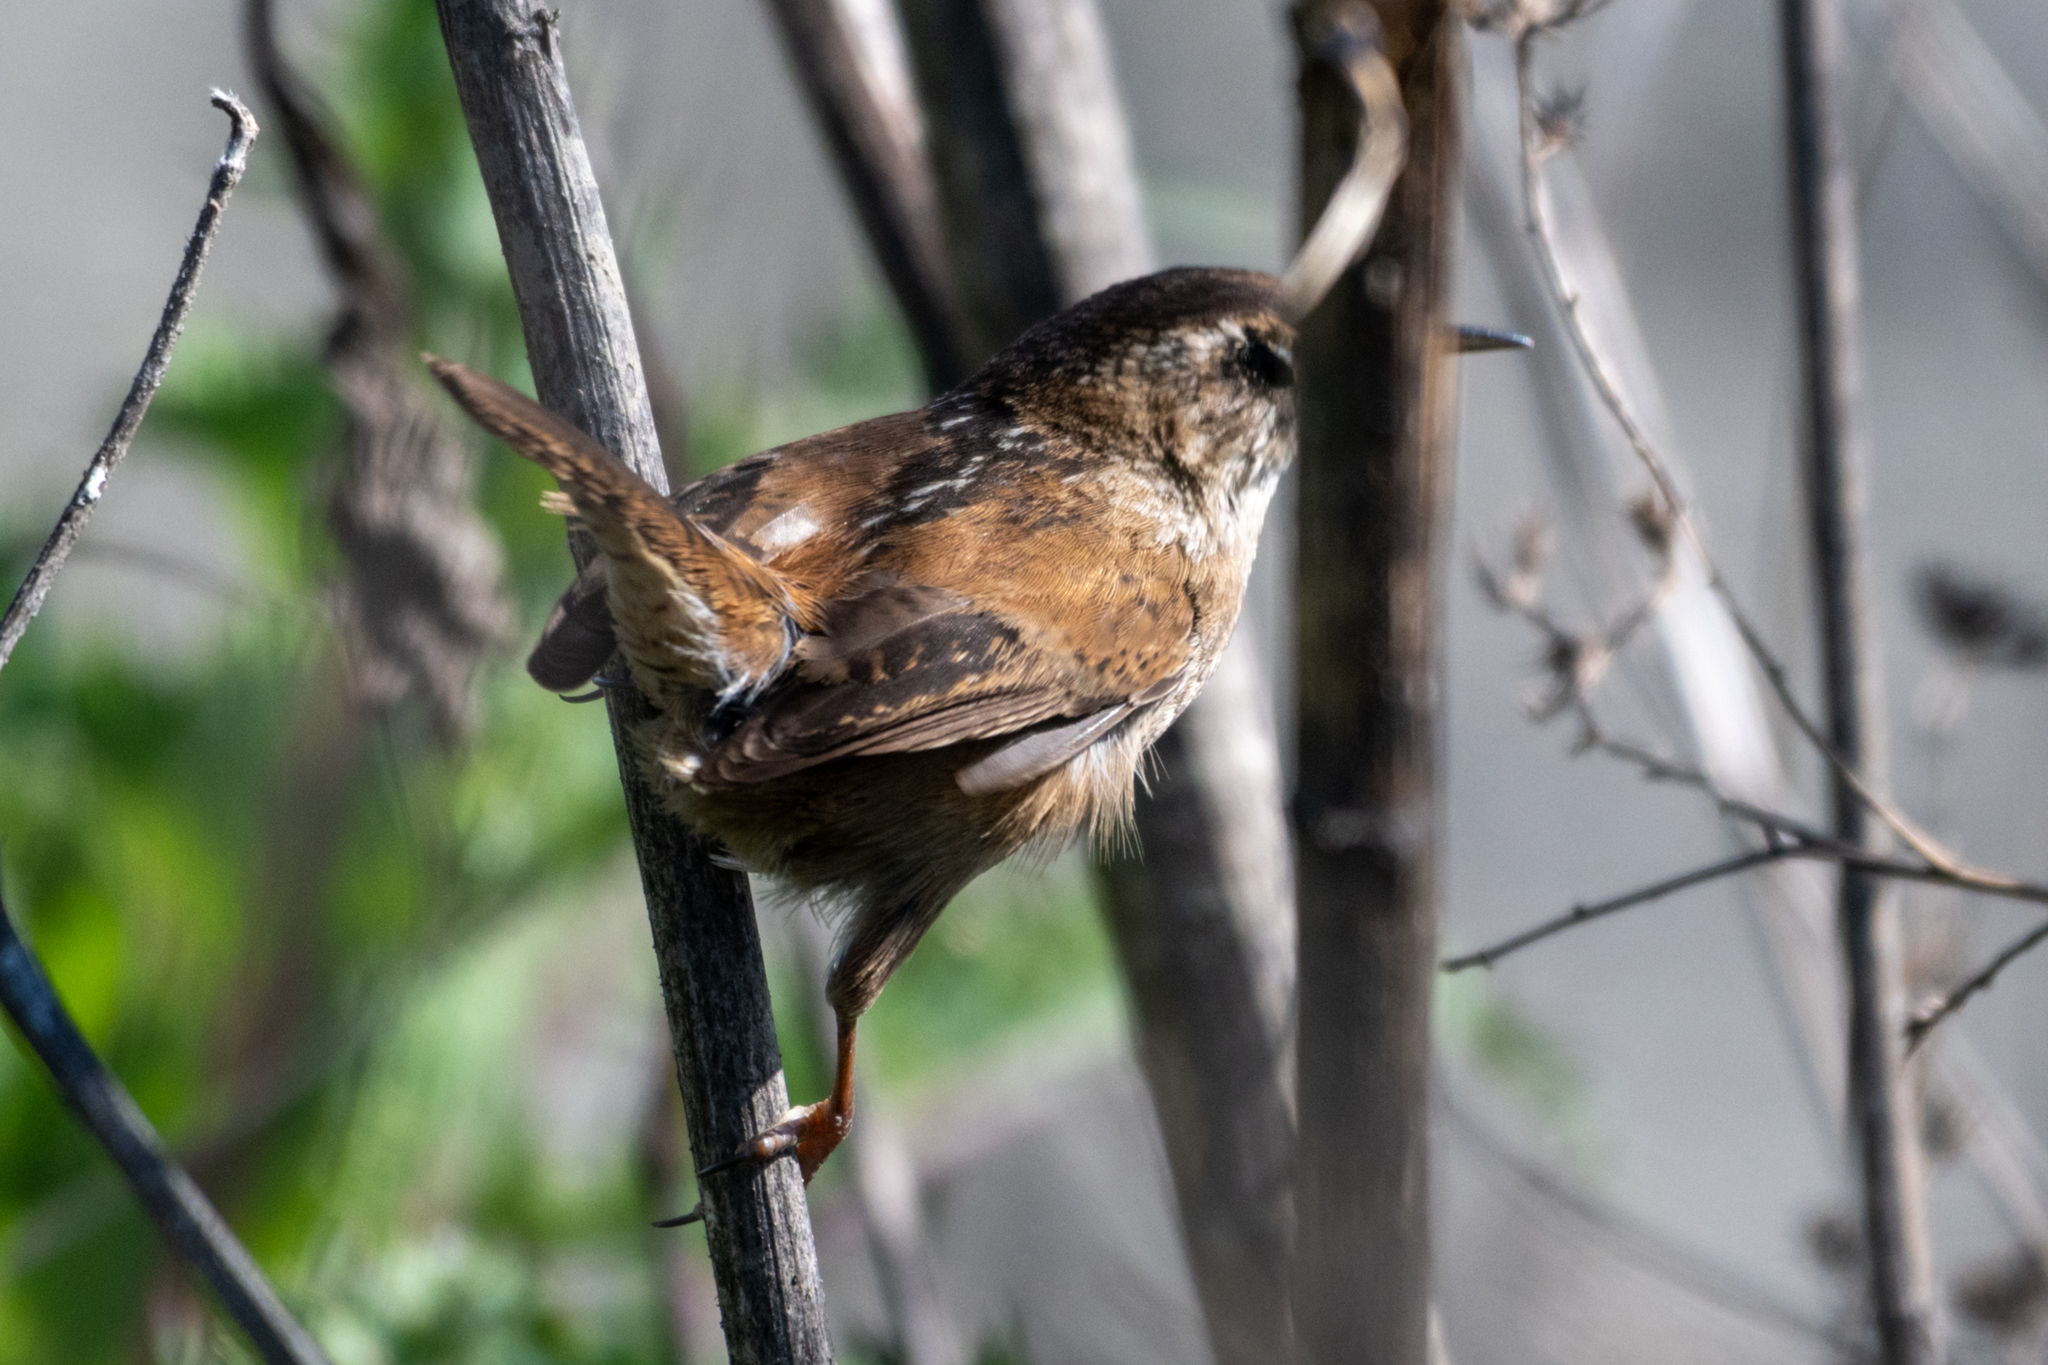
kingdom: Animalia
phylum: Chordata
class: Aves
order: Passeriformes
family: Troglodytidae
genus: Cistothorus
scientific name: Cistothorus palustris
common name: Marsh wren
